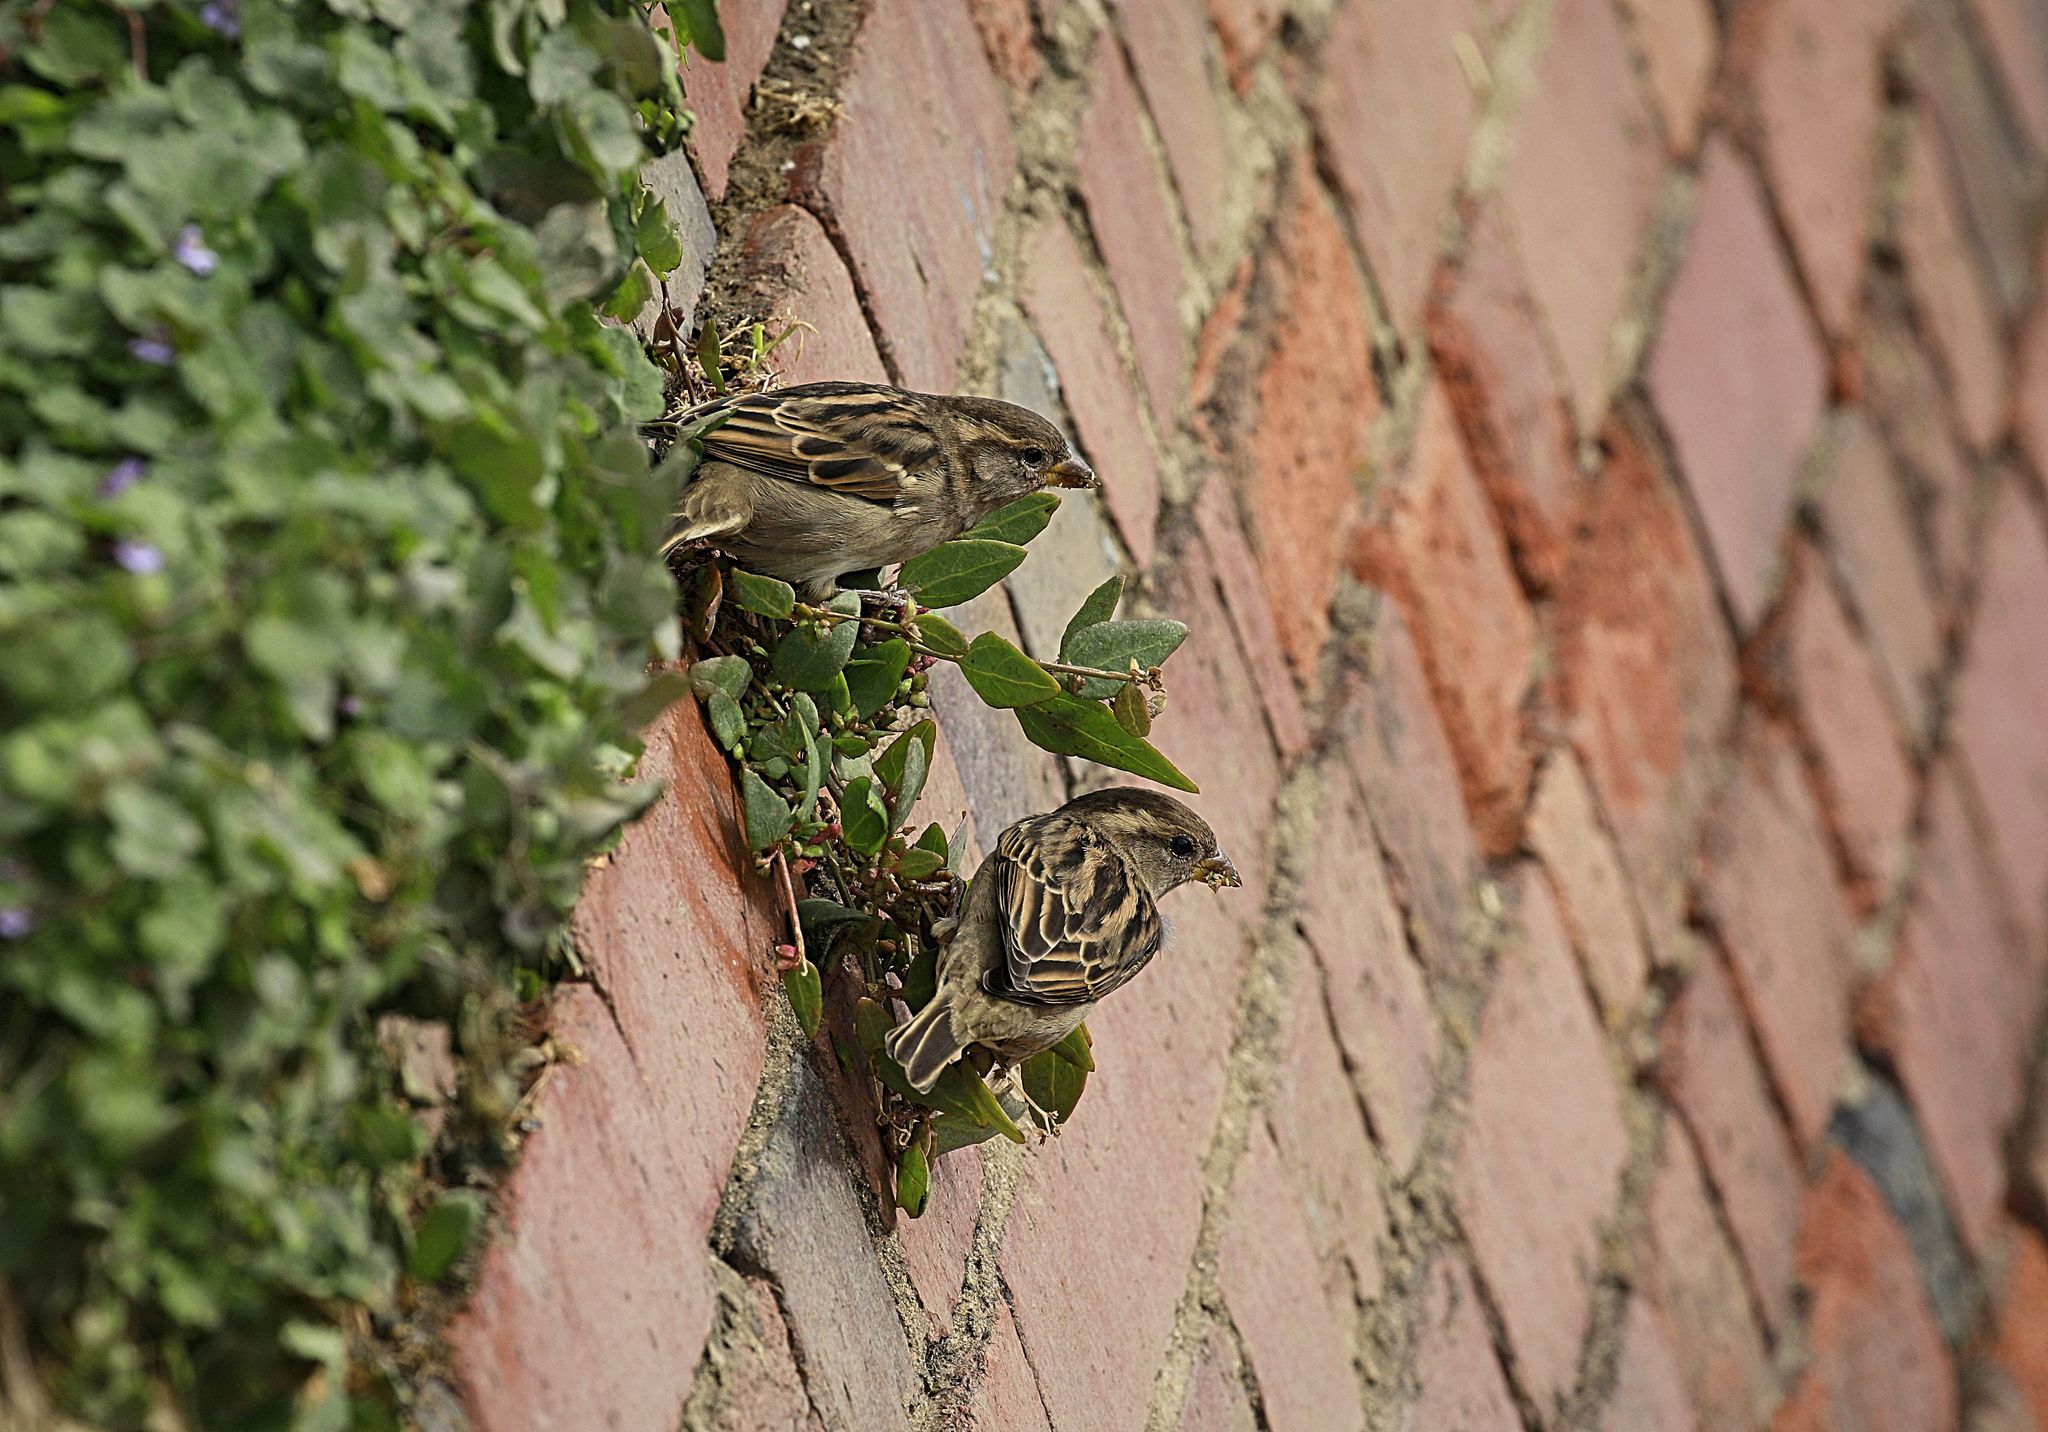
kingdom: Animalia
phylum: Chordata
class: Aves
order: Passeriformes
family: Passeridae
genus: Passer
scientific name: Passer domesticus
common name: House sparrow
